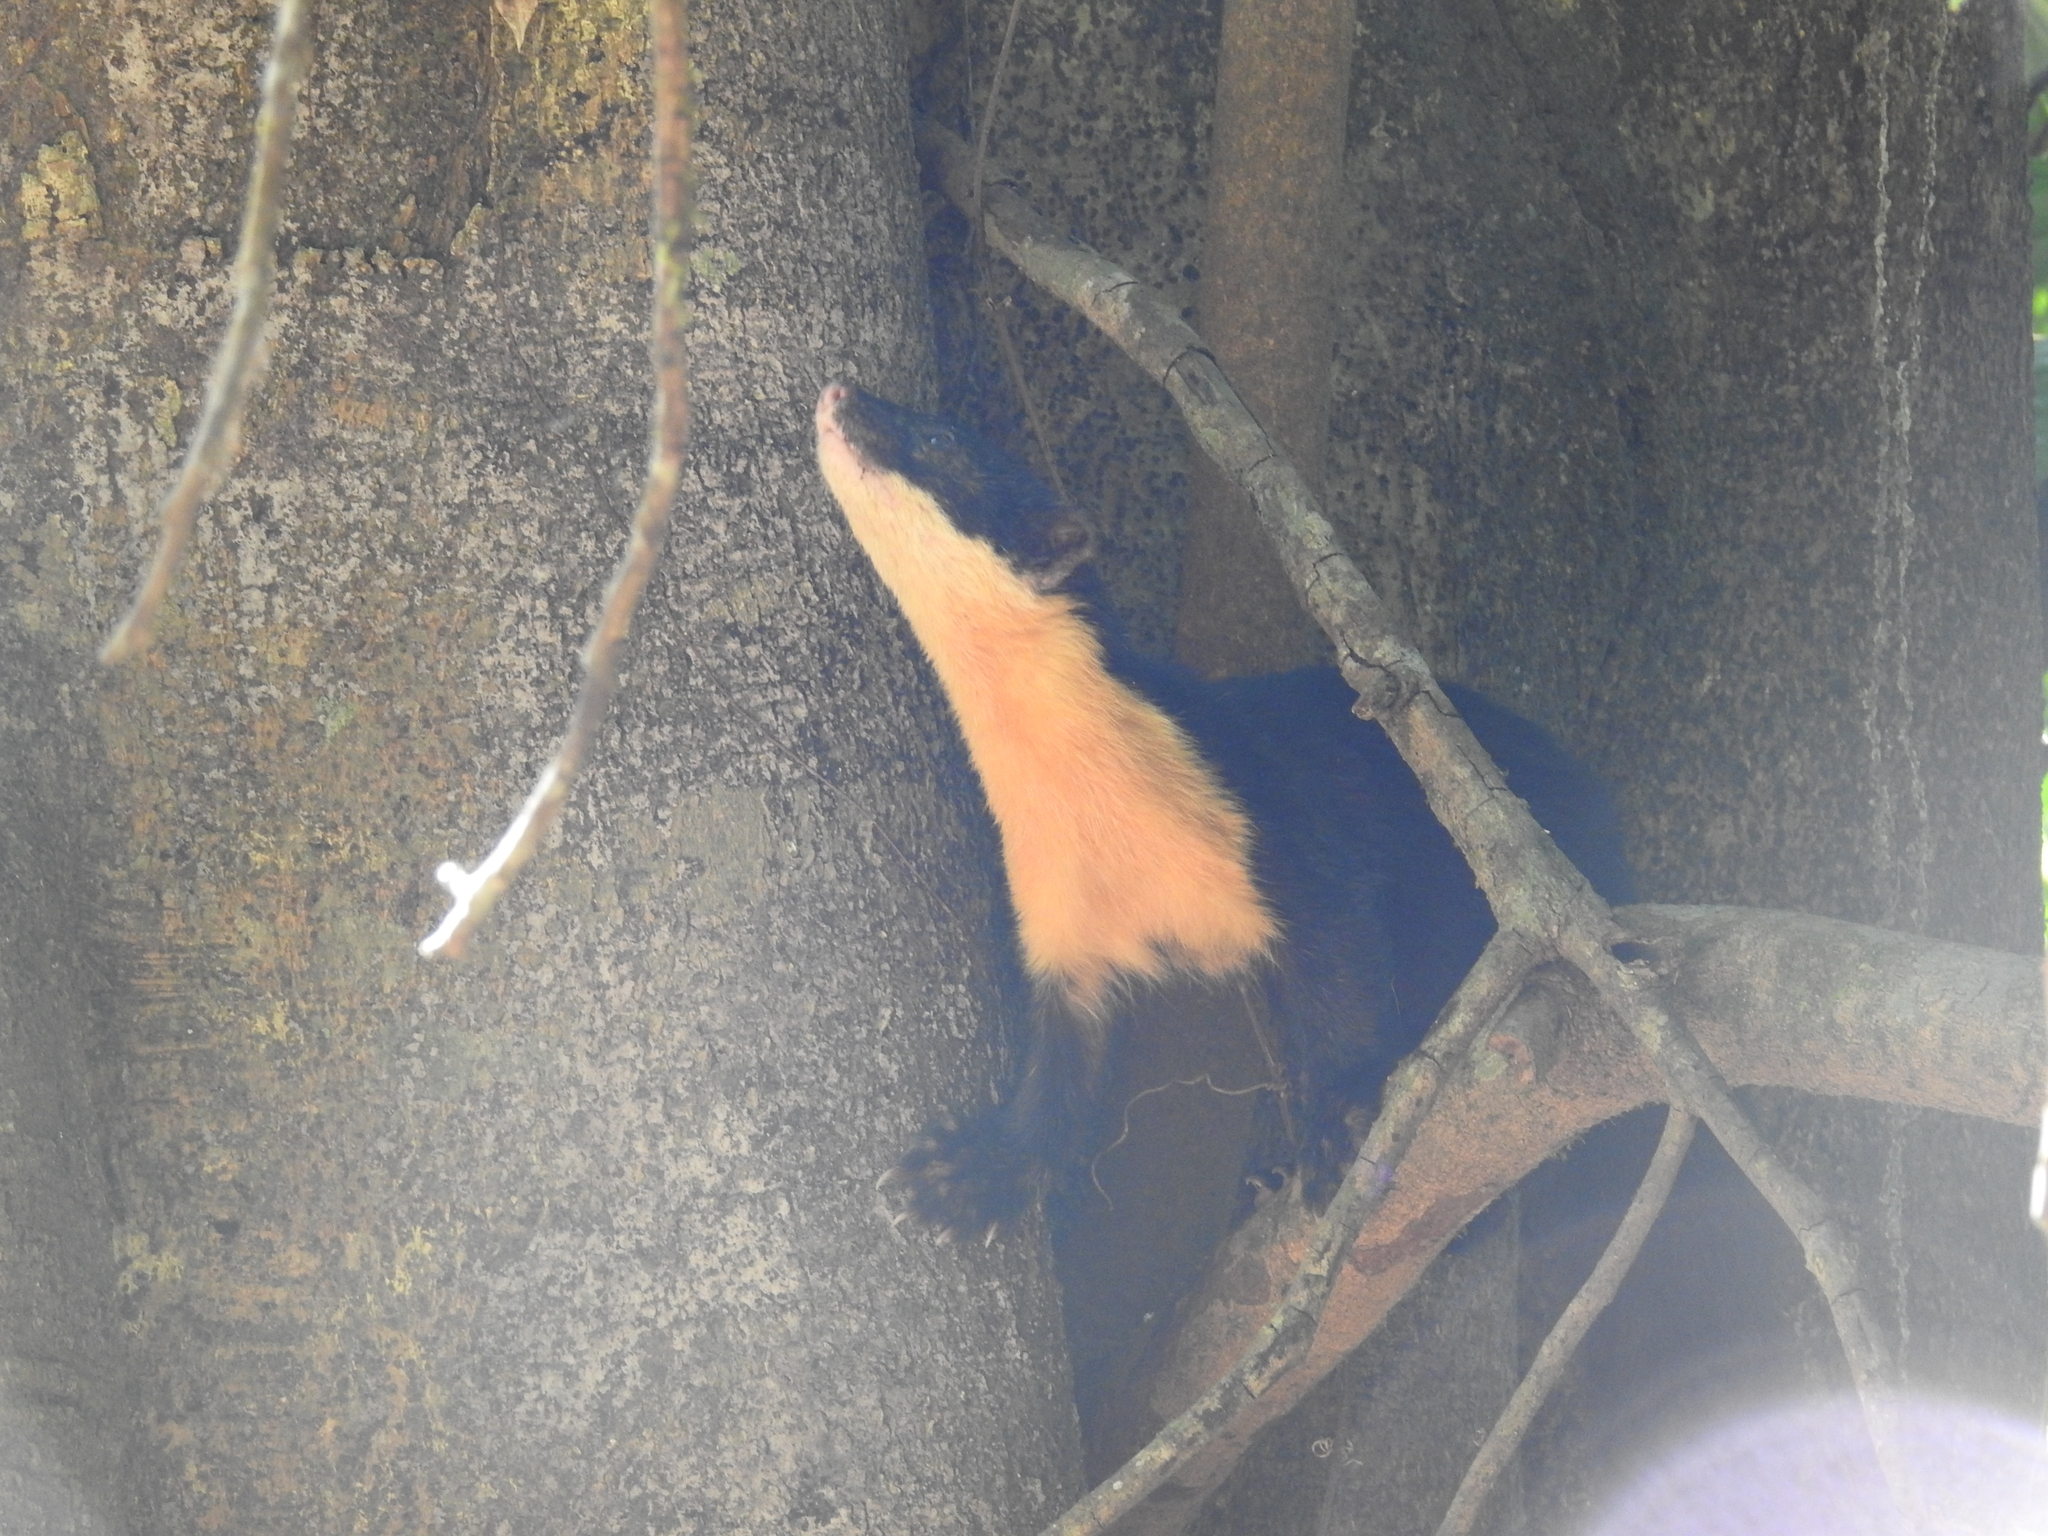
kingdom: Animalia
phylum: Chordata
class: Mammalia
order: Carnivora
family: Mustelidae
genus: Martes
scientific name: Martes gwatkinsii
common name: Nilgiri marten
